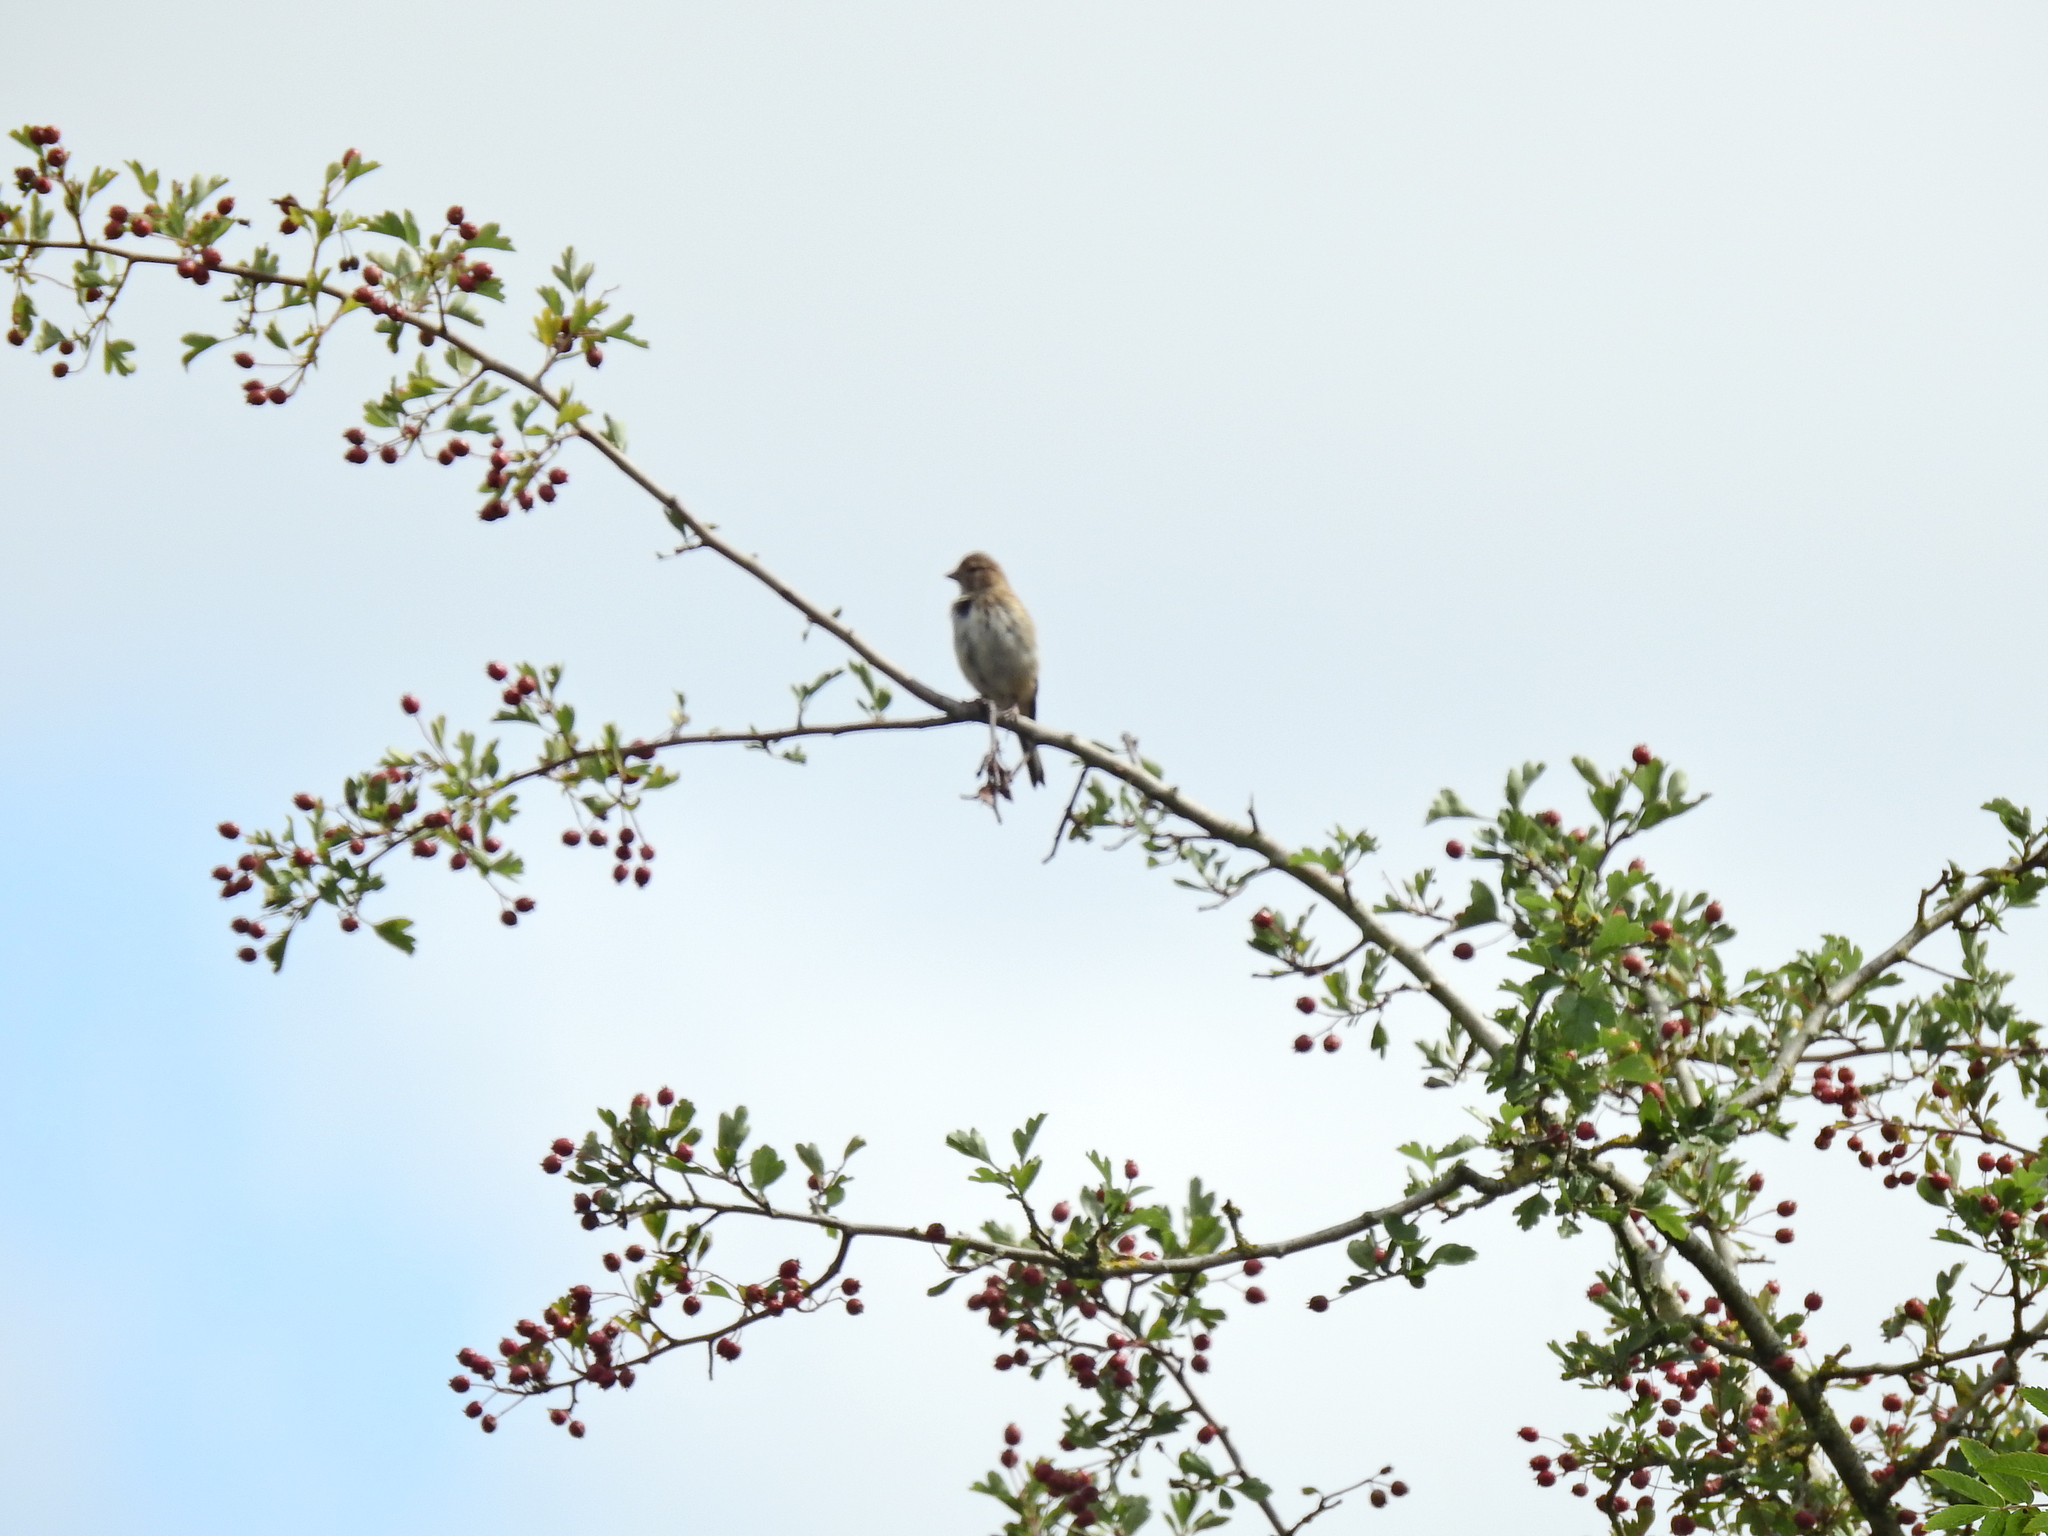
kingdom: Animalia
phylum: Chordata
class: Aves
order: Passeriformes
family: Fringillidae
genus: Linaria
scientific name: Linaria cannabina
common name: Common linnet
